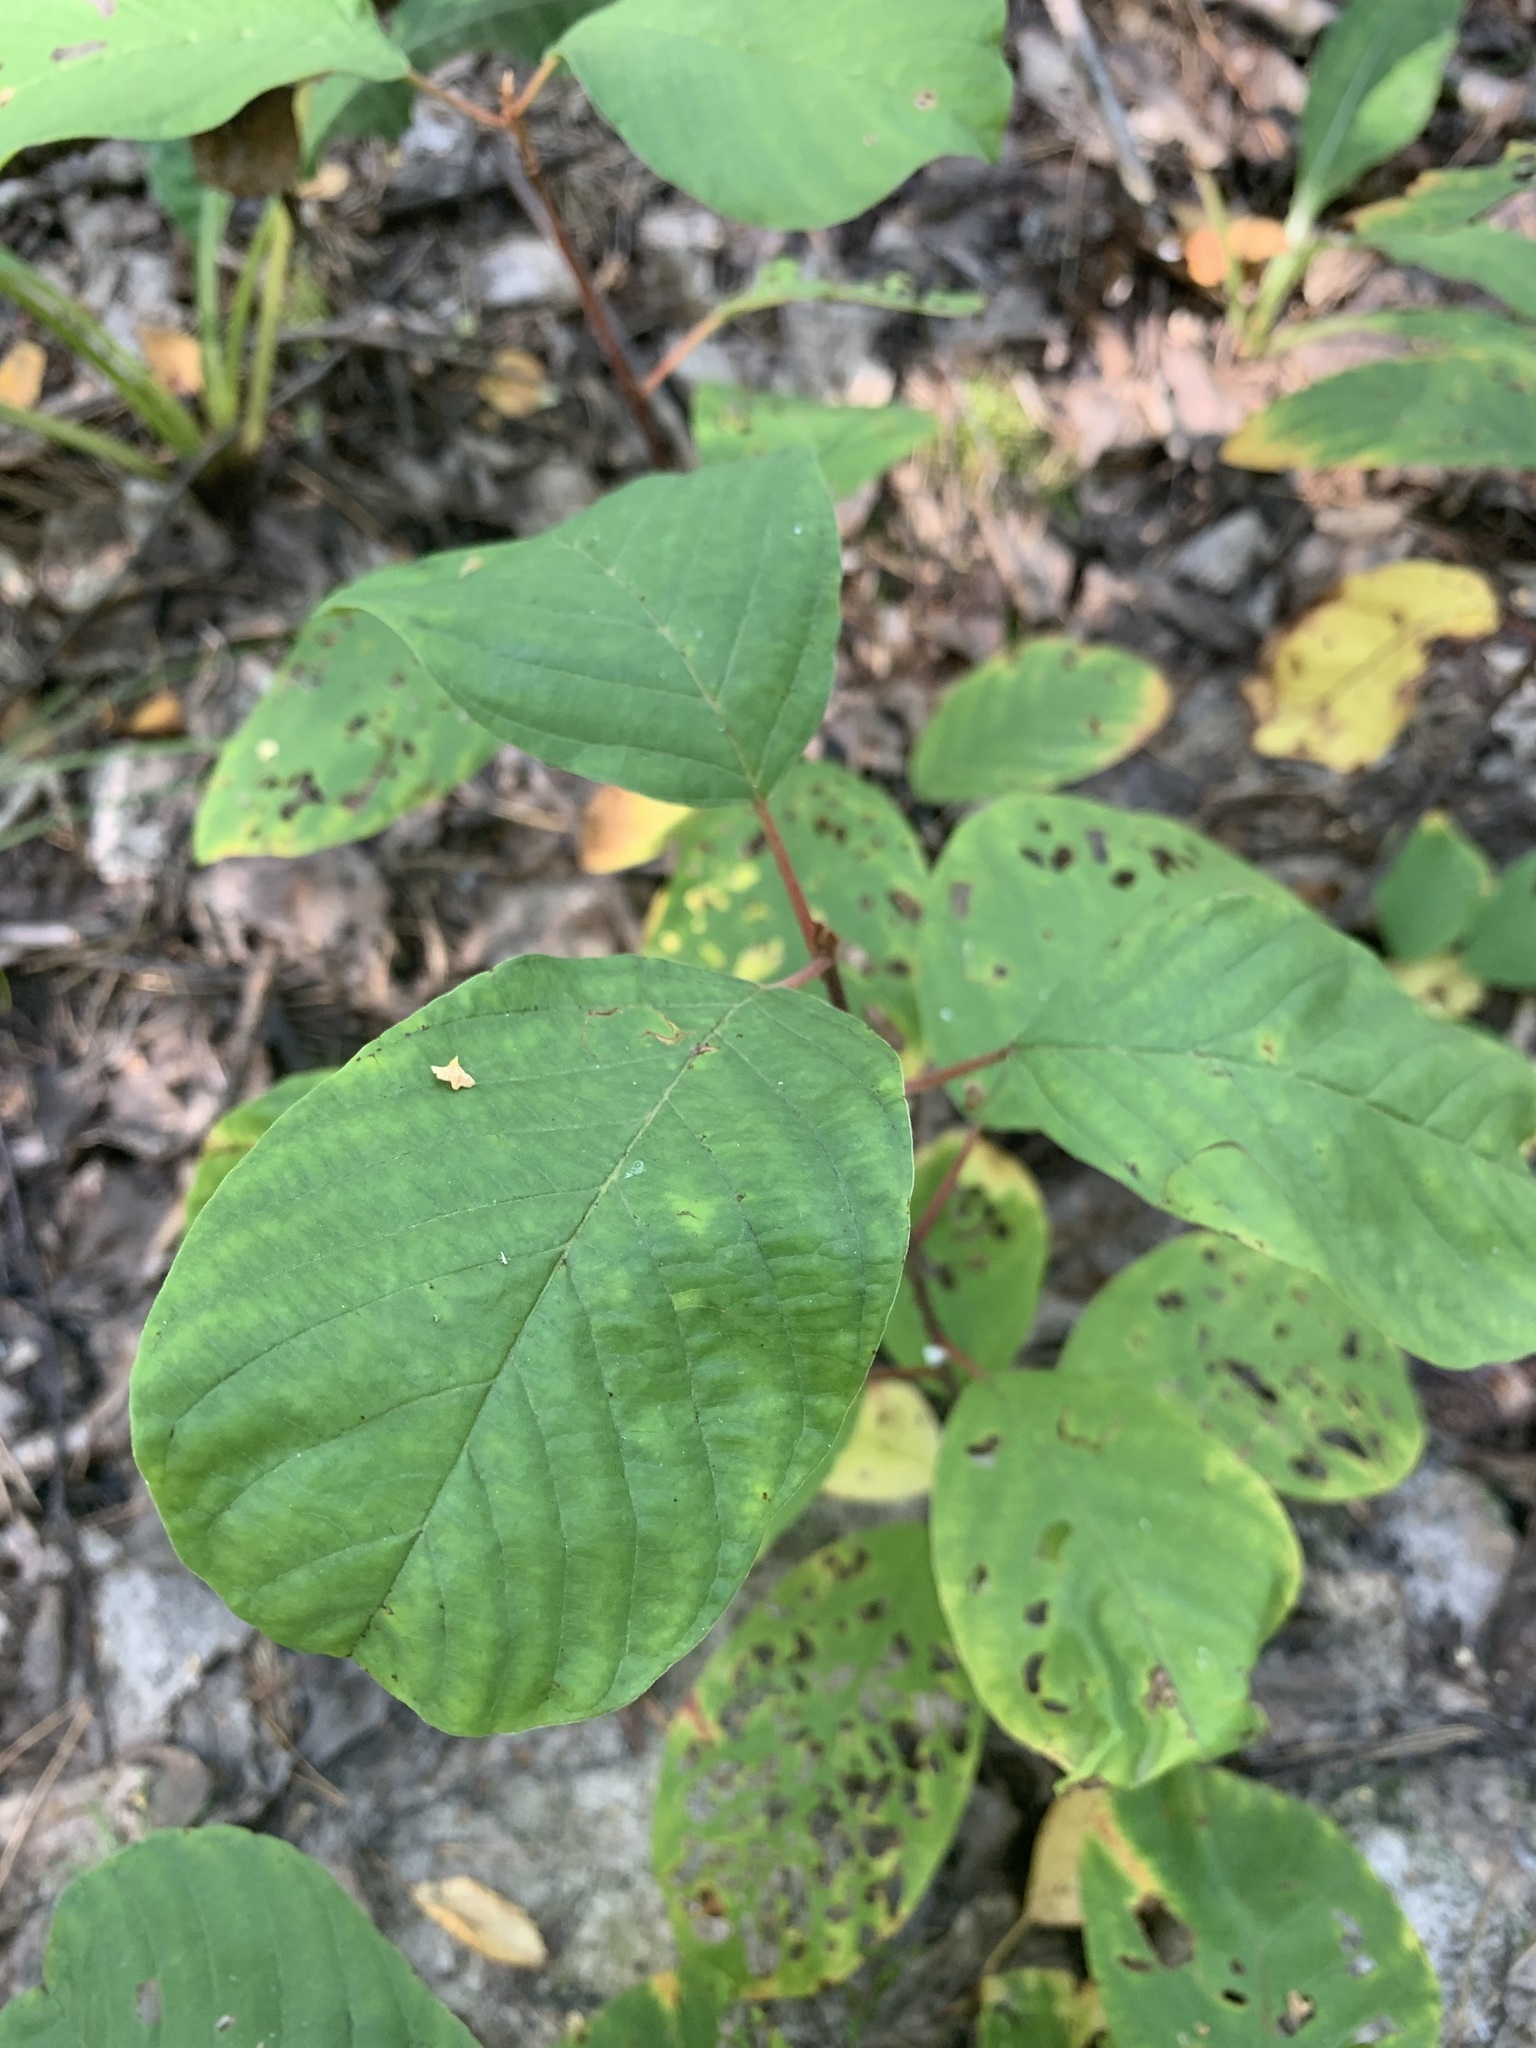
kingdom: Plantae
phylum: Tracheophyta
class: Magnoliopsida
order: Rosales
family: Rhamnaceae
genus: Frangula
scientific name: Frangula alnus
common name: Alder buckthorn
